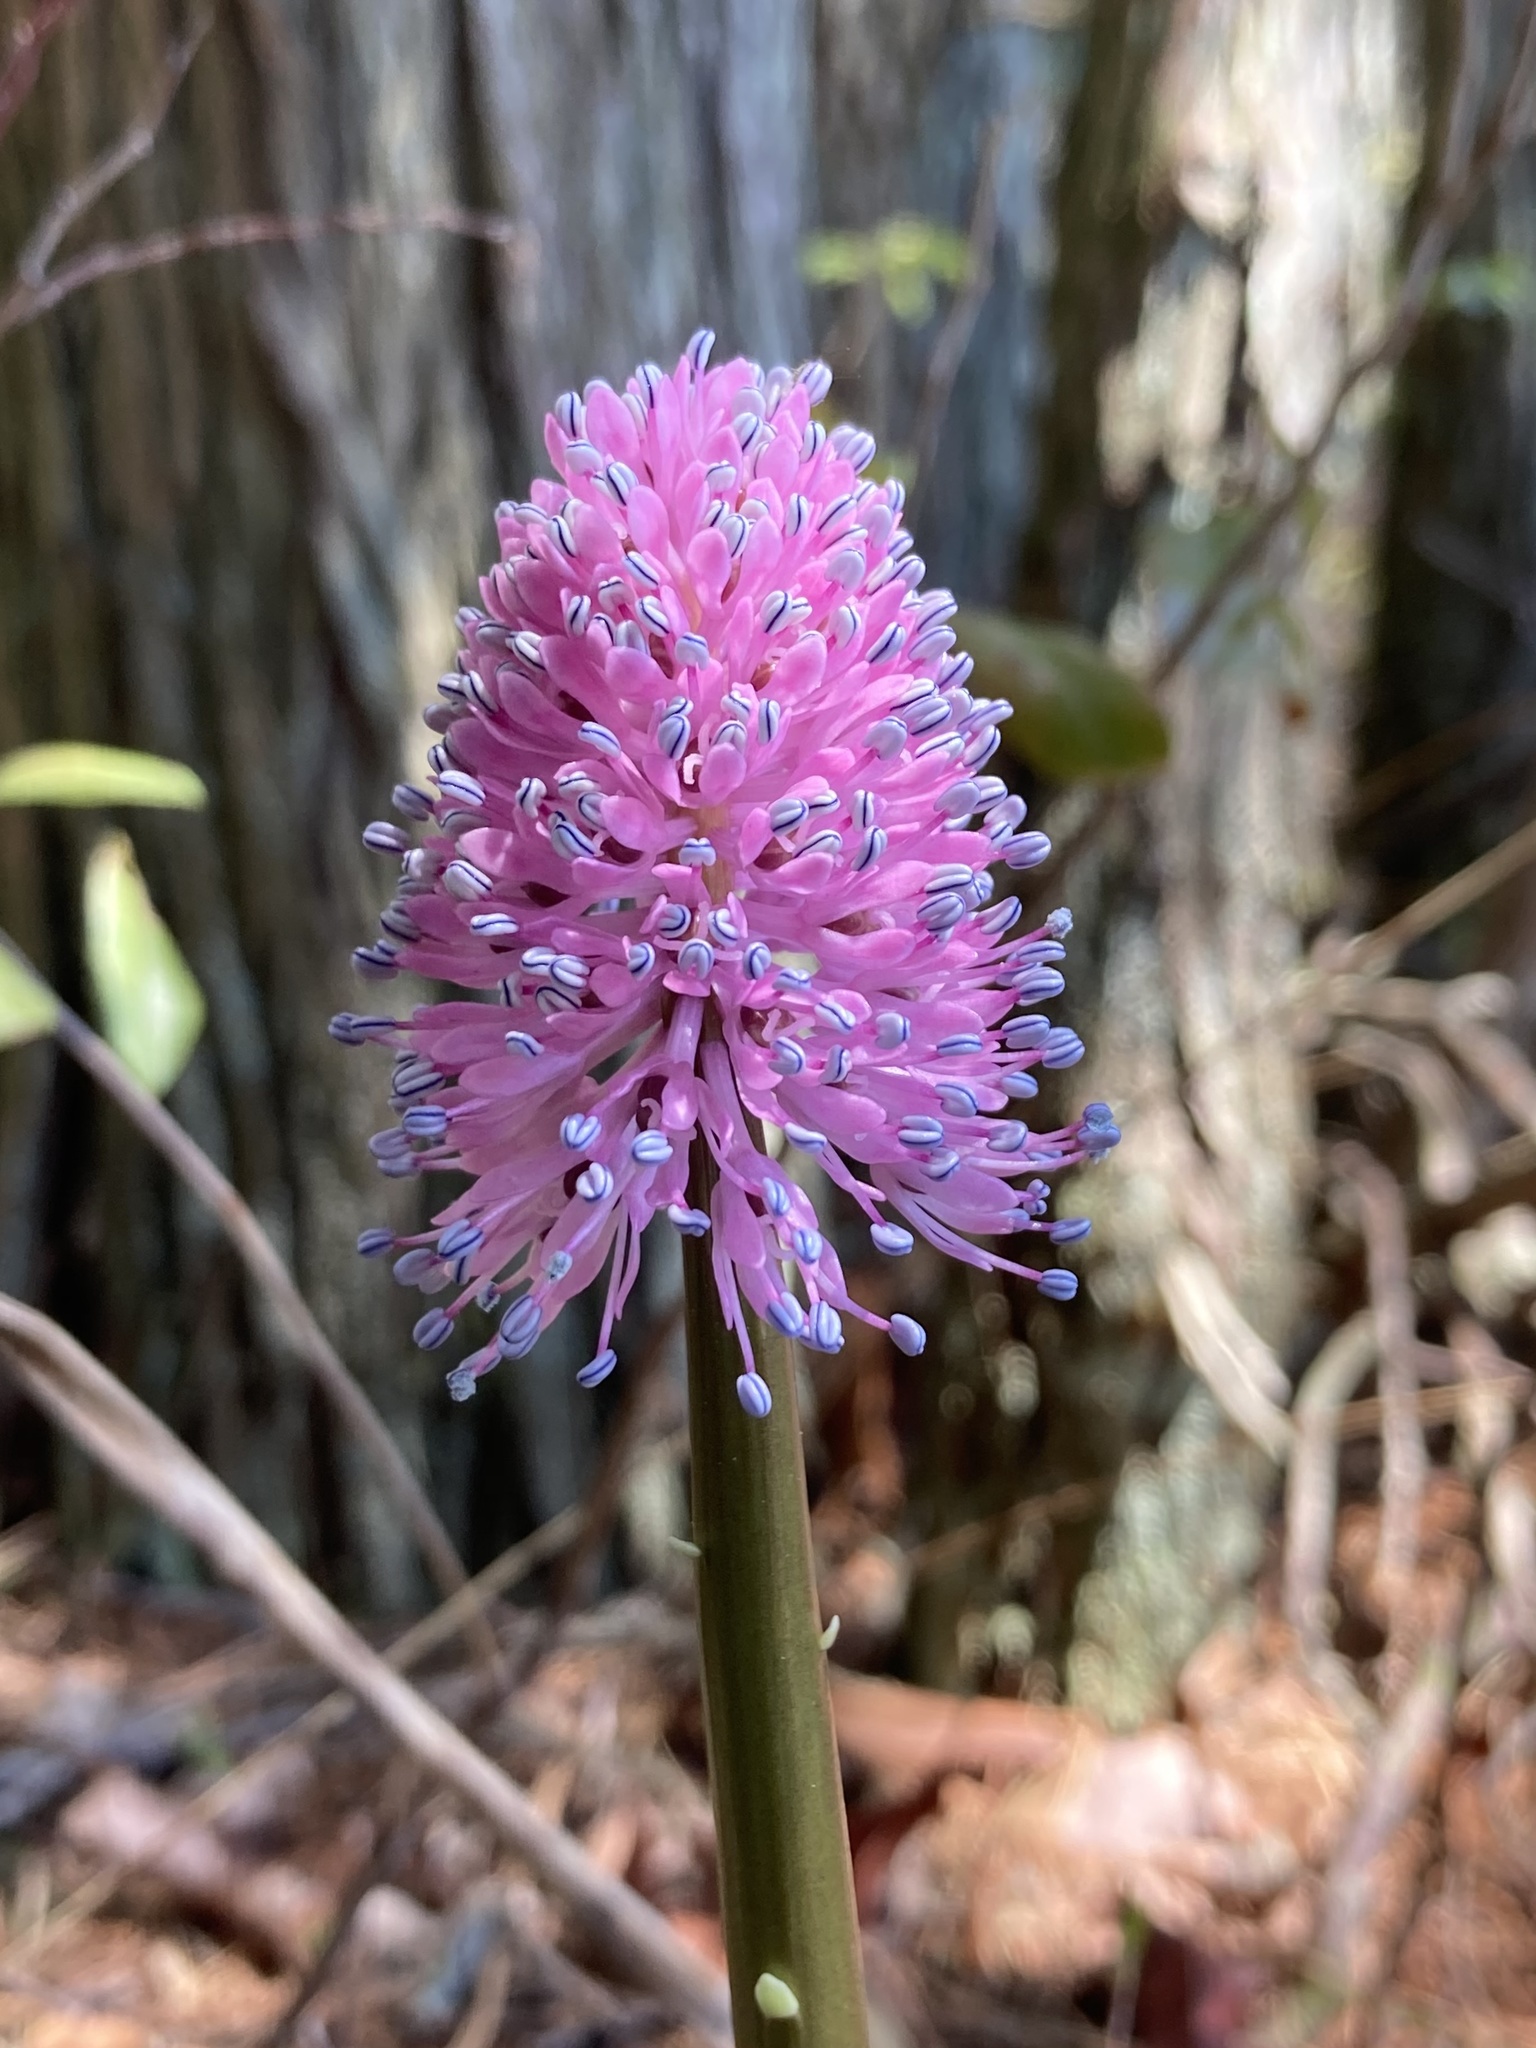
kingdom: Plantae
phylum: Tracheophyta
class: Liliopsida
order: Liliales
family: Melanthiaceae
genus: Helonias
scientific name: Helonias bullata
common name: Swamp-pink
